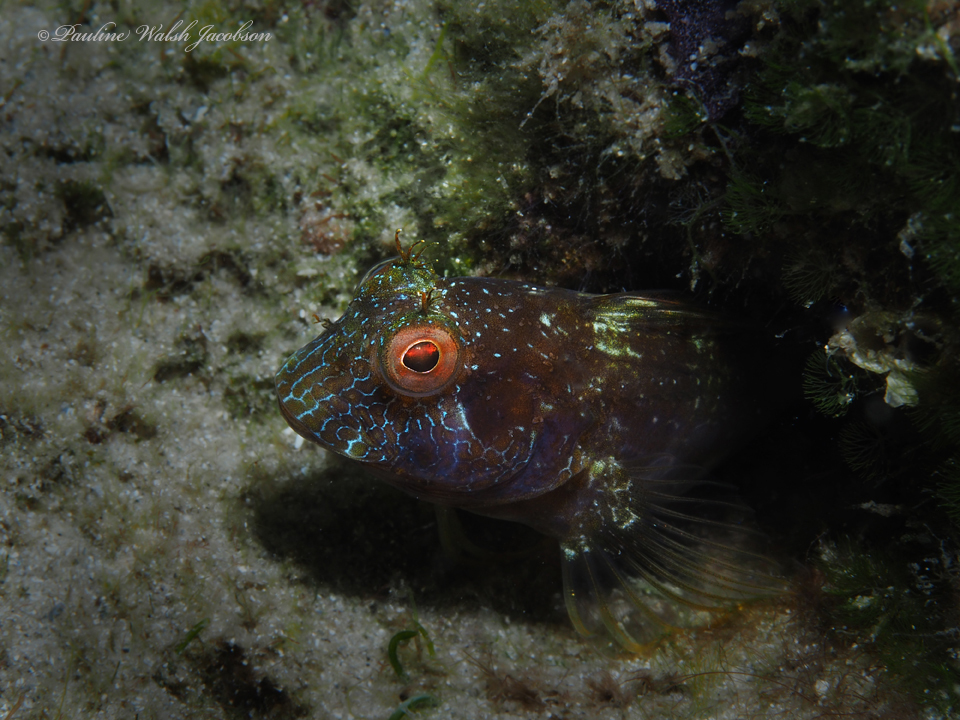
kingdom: Animalia
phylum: Chordata
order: Perciformes
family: Blenniidae
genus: Parablennius
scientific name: Parablennius marmoreus
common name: Seaweed blenny
